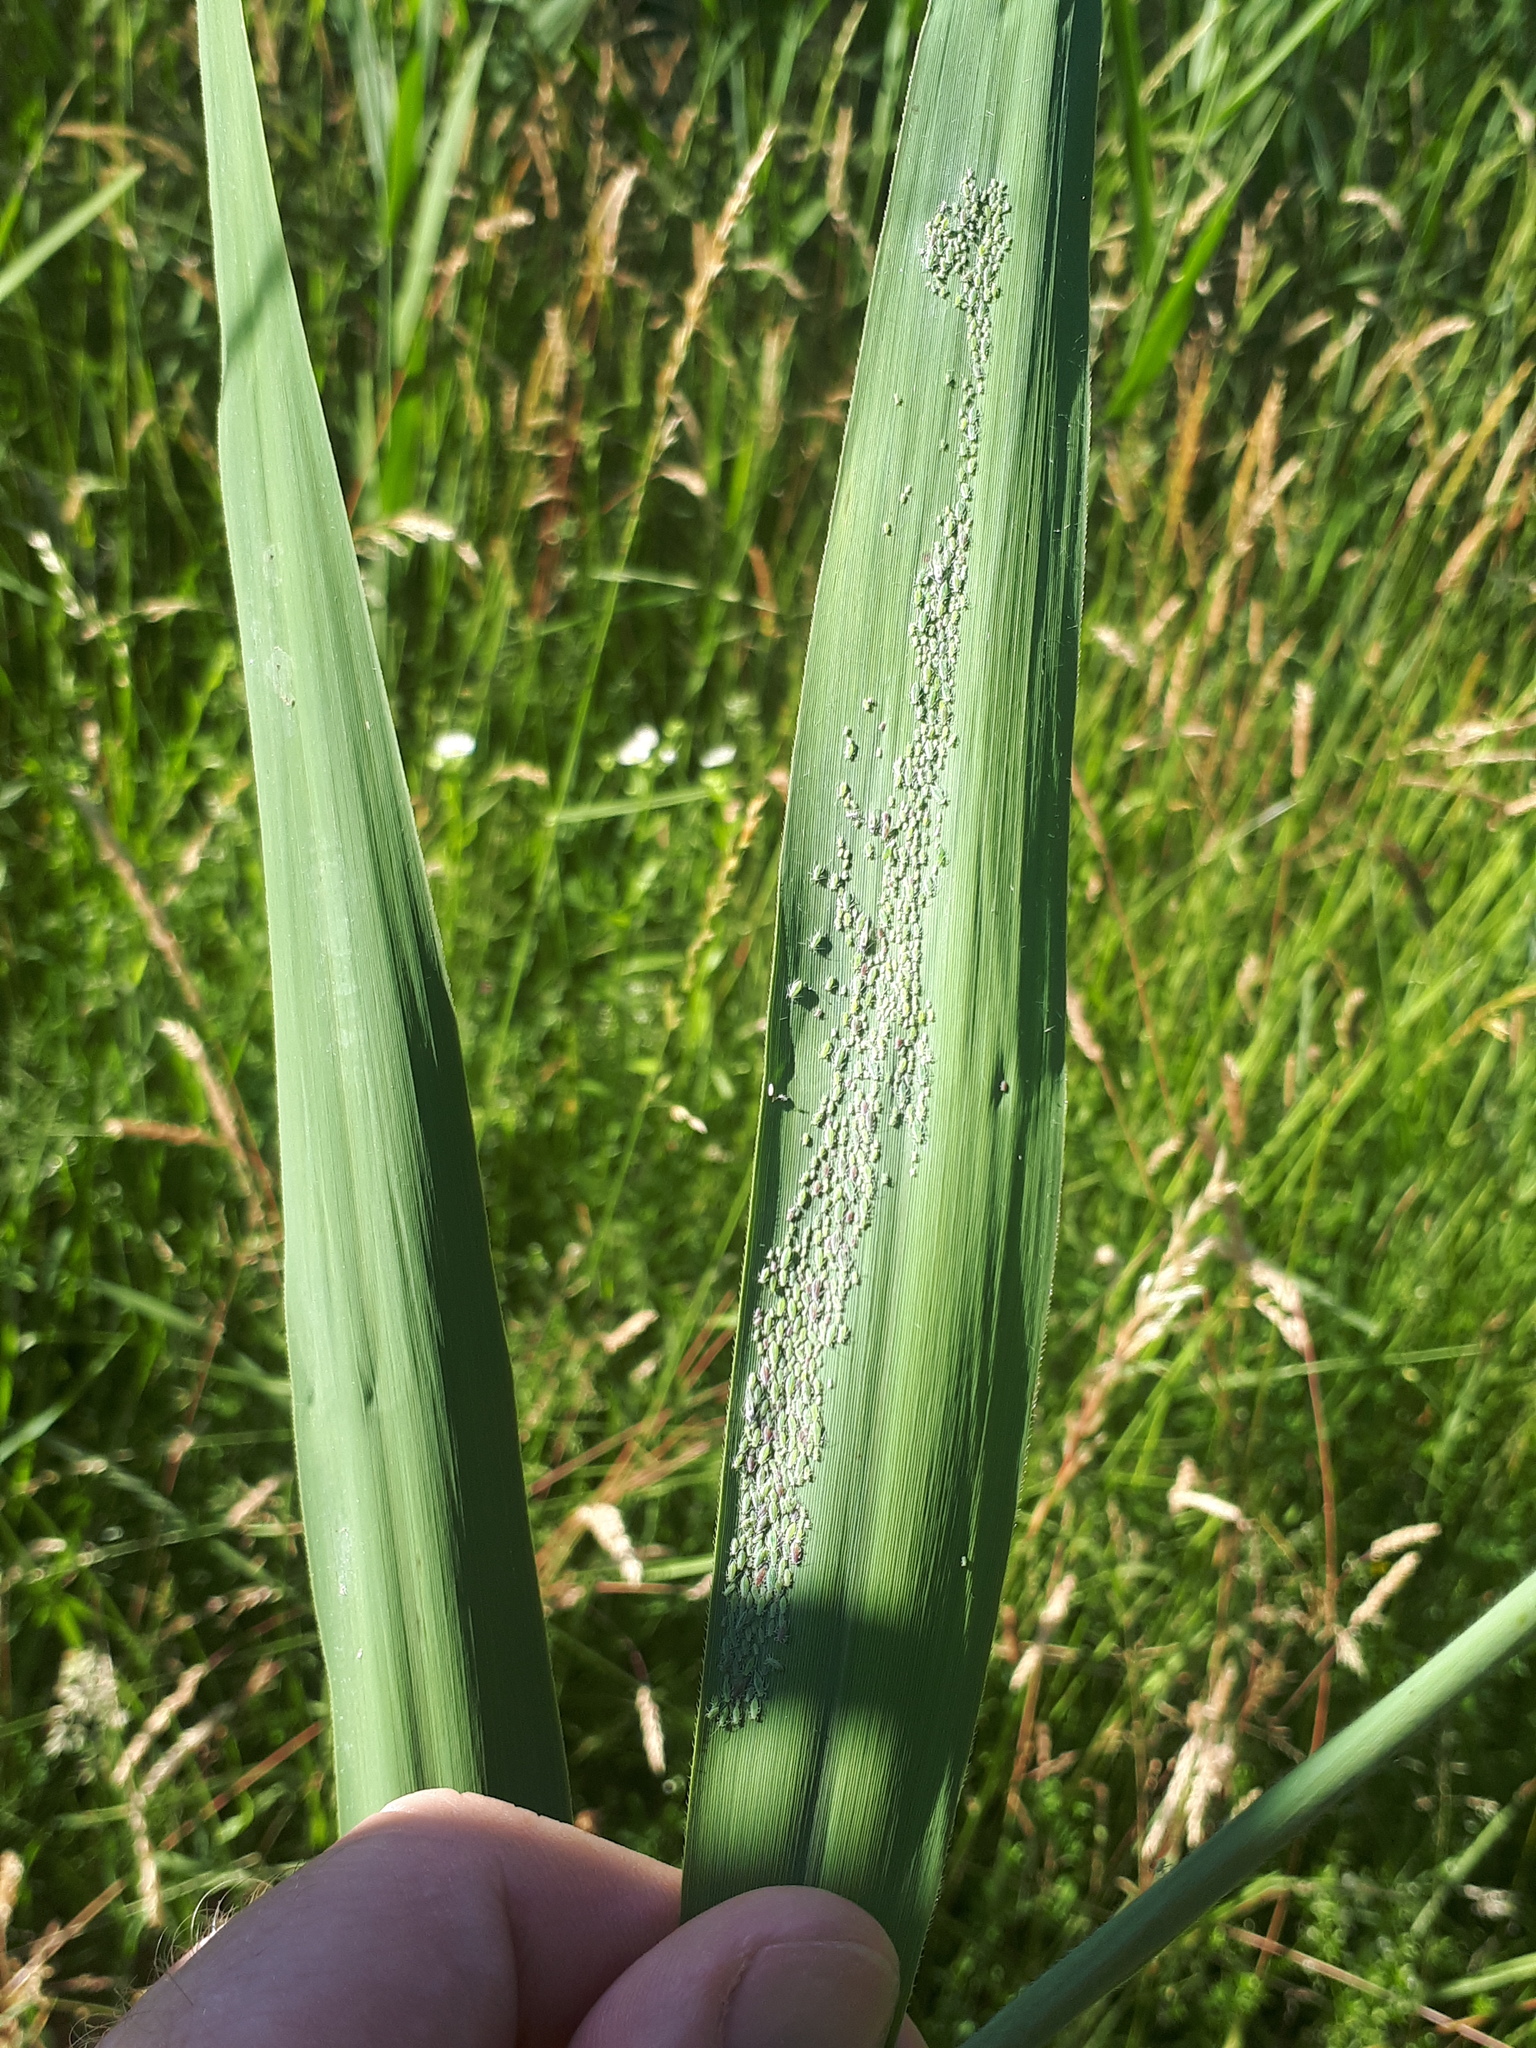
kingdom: Animalia
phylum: Arthropoda
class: Insecta
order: Hemiptera
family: Aphididae
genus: Hyalopterus
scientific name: Hyalopterus
